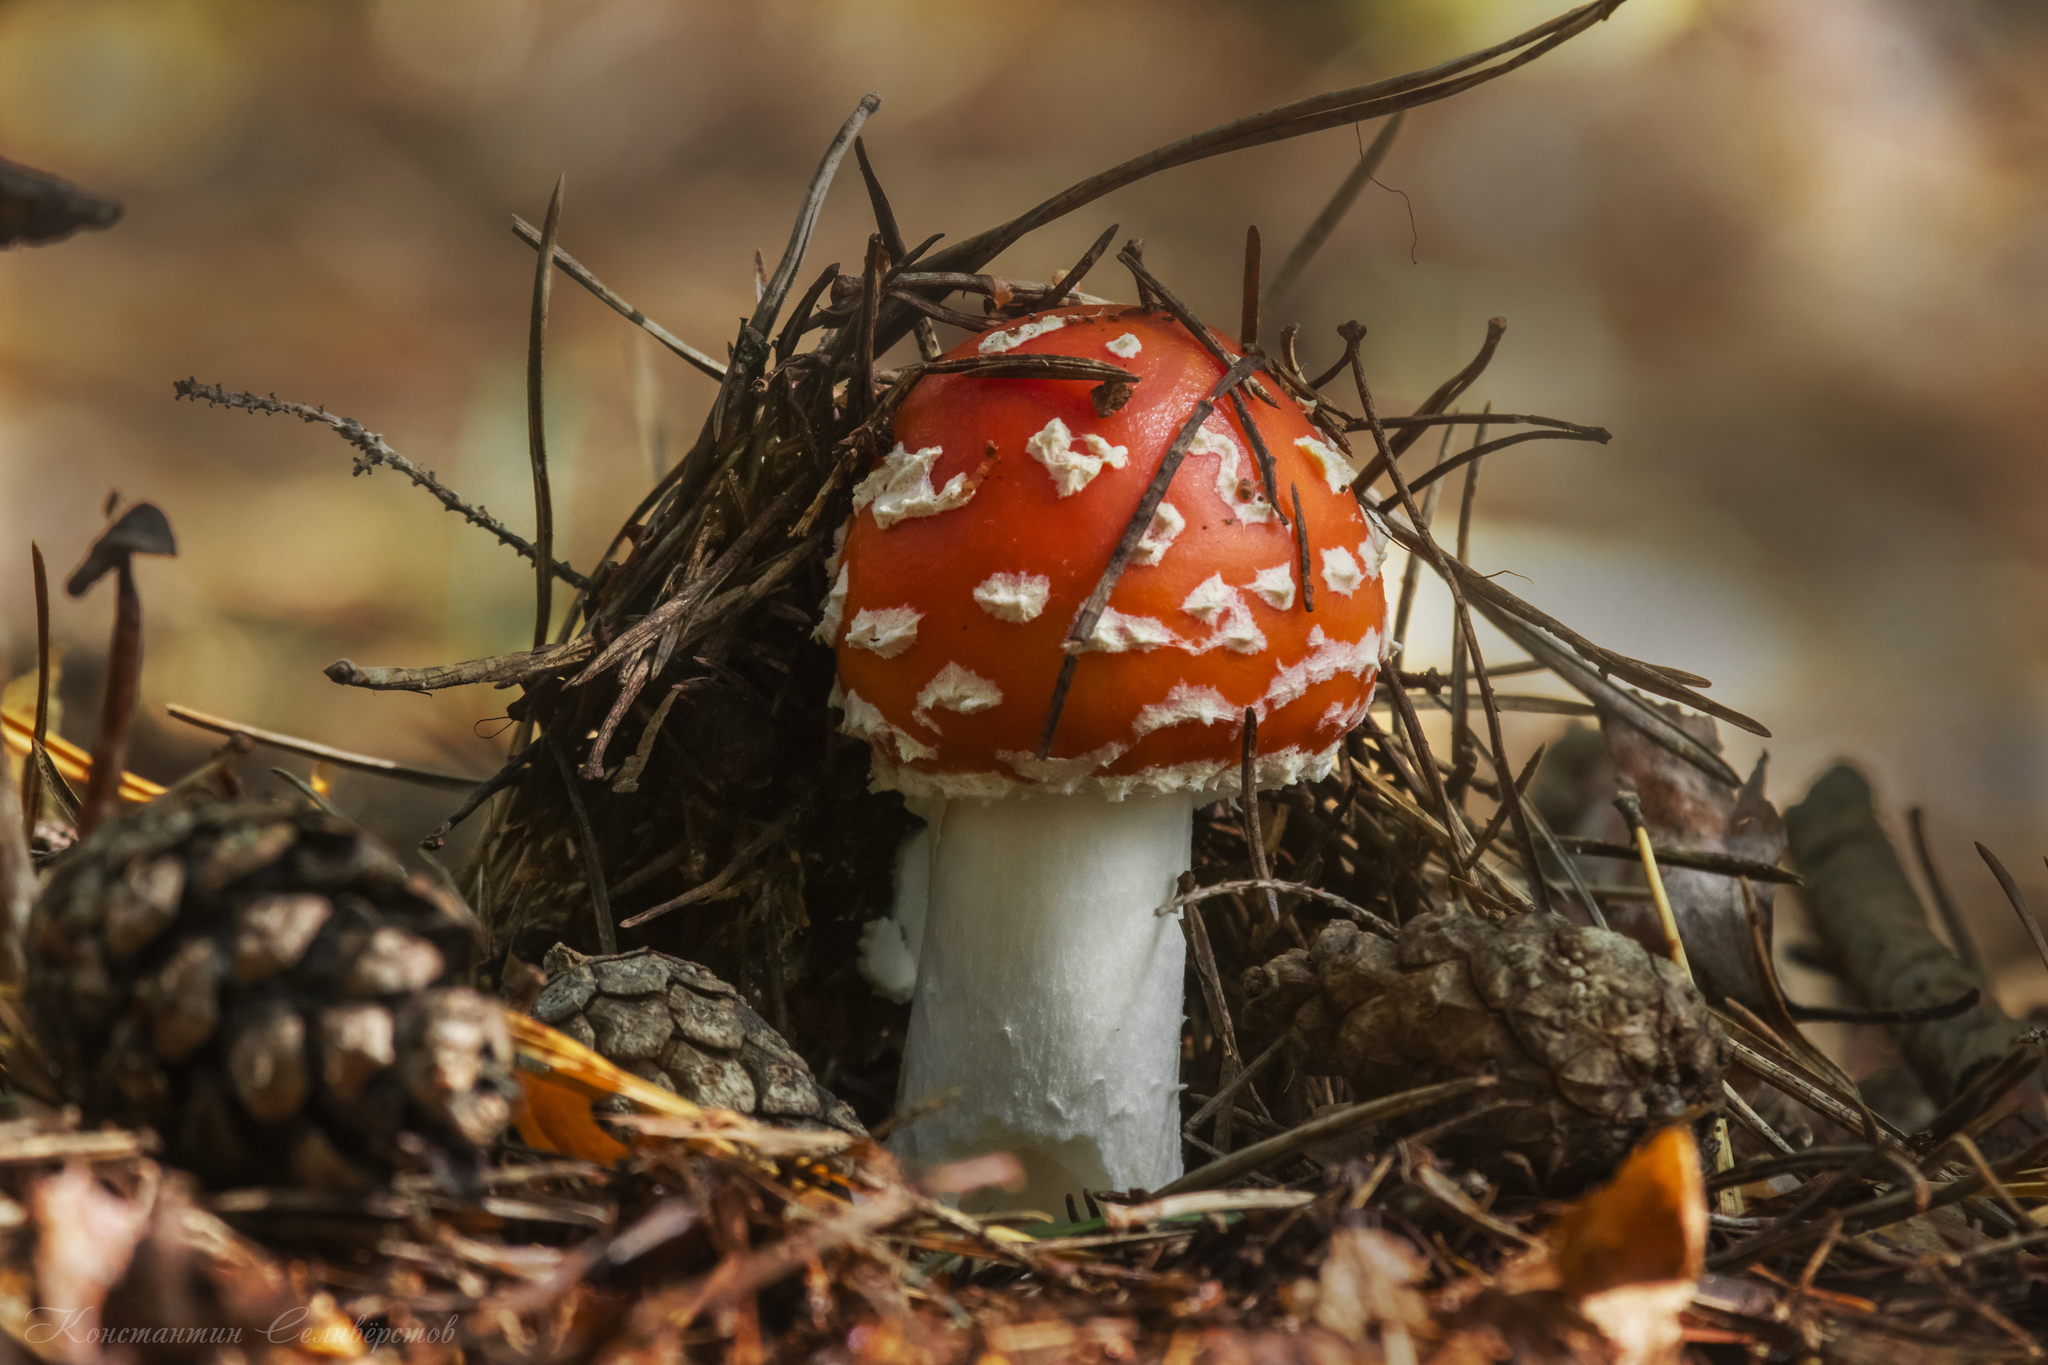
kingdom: Fungi
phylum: Basidiomycota
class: Agaricomycetes
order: Agaricales
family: Amanitaceae
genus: Amanita
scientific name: Amanita muscaria
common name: Fly agaric
